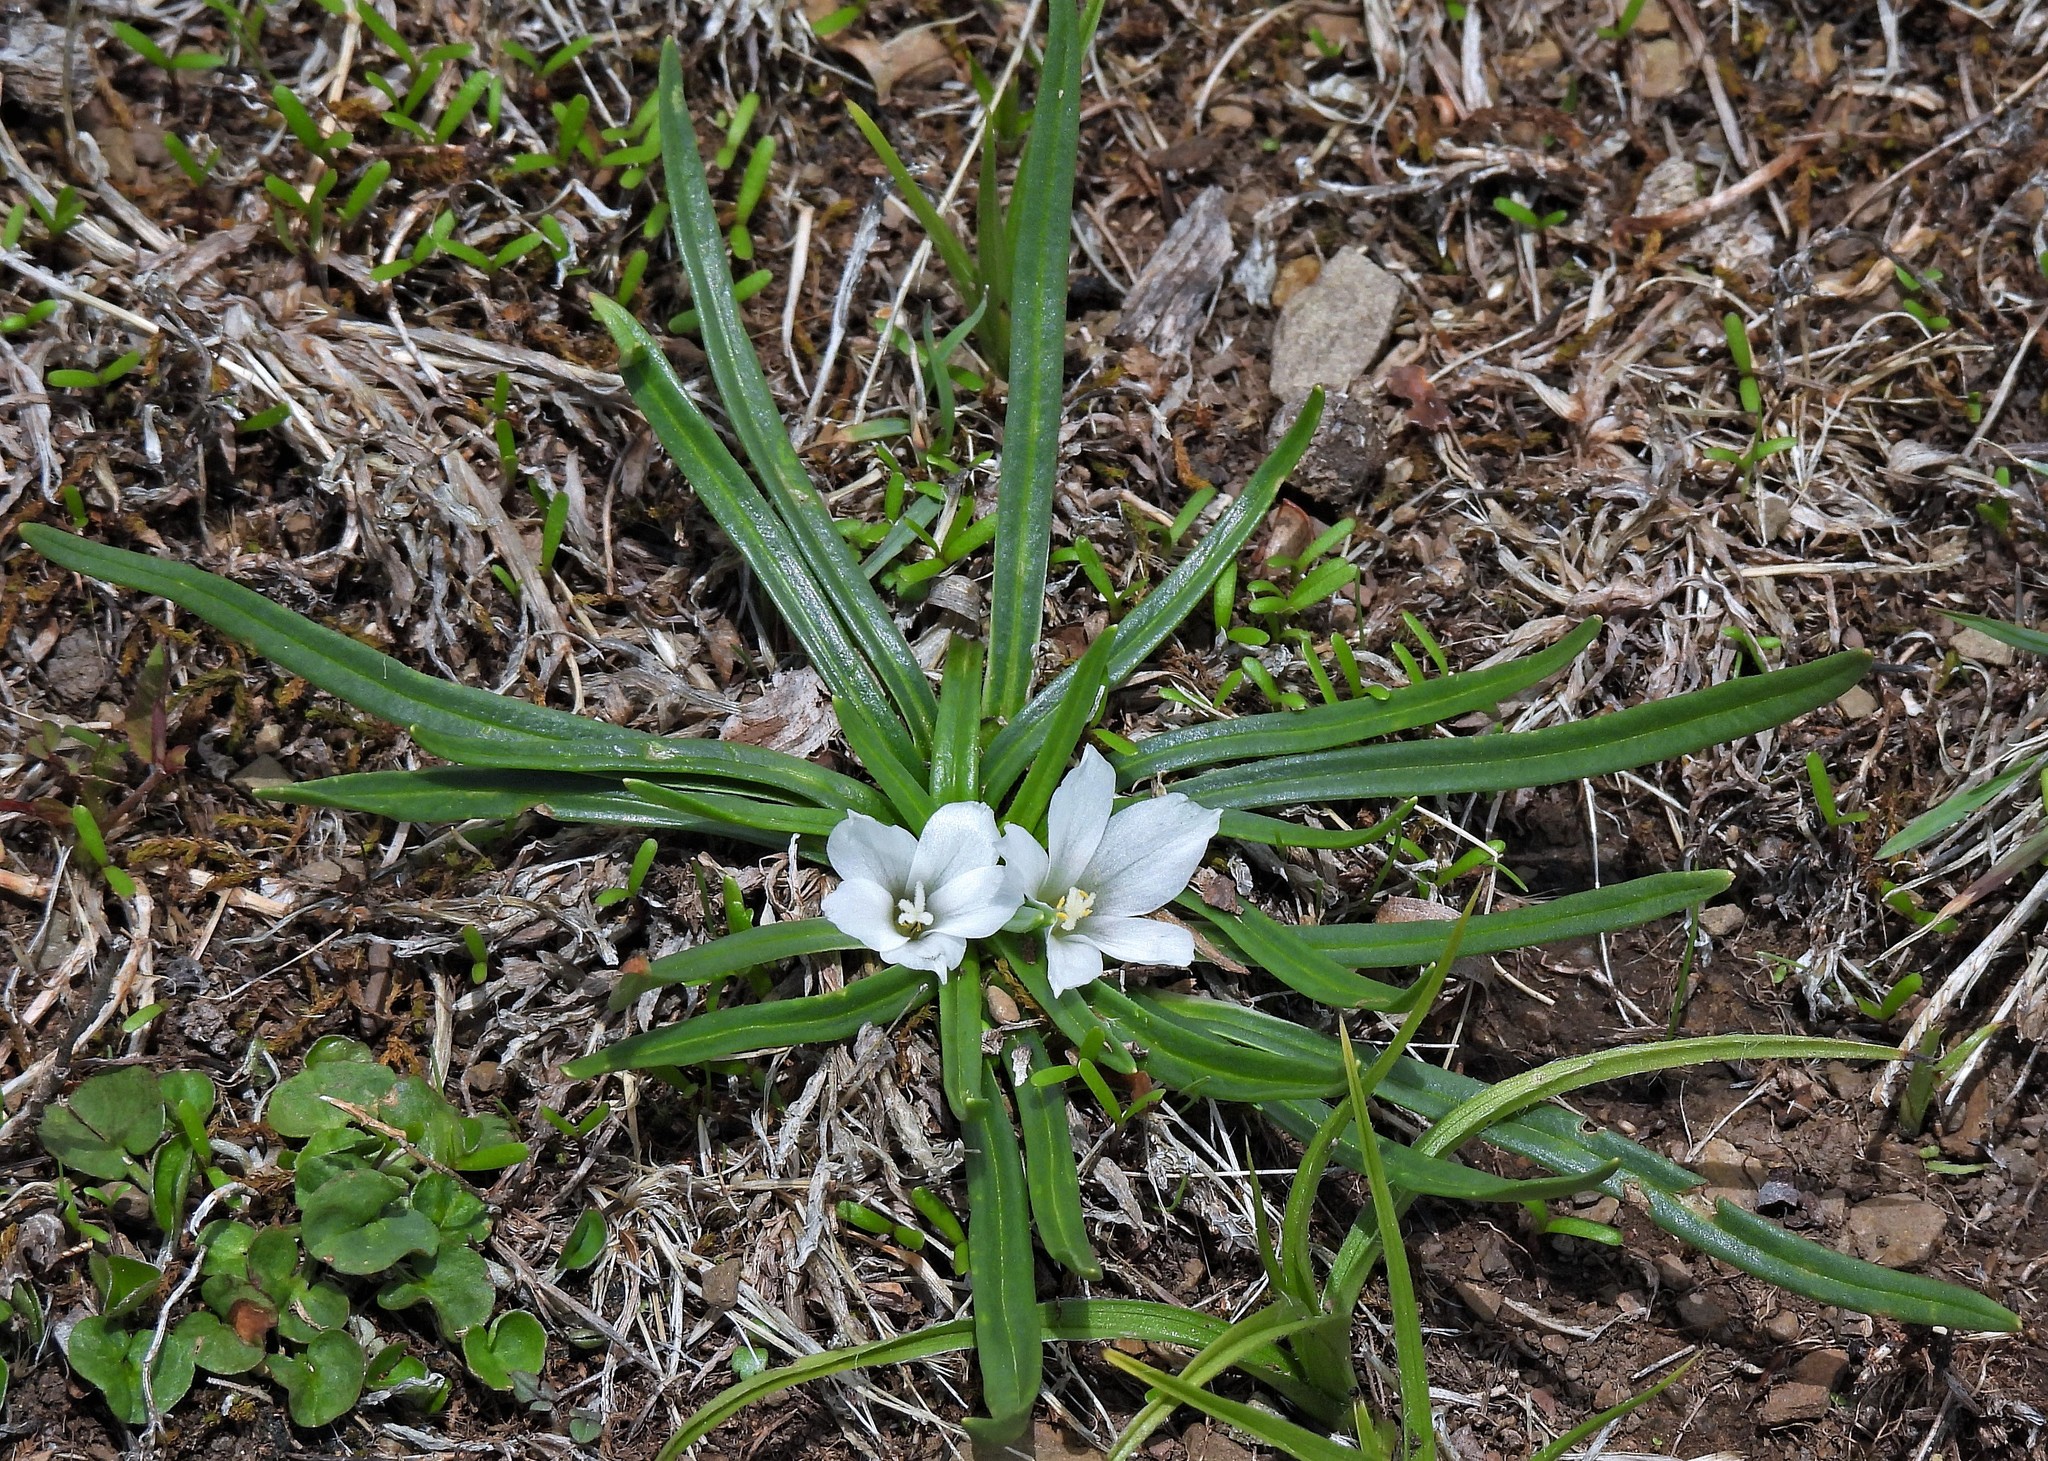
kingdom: Plantae
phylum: Tracheophyta
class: Magnoliopsida
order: Caryophyllales
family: Montiaceae
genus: Calandrinia
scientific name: Calandrinia acaulis
